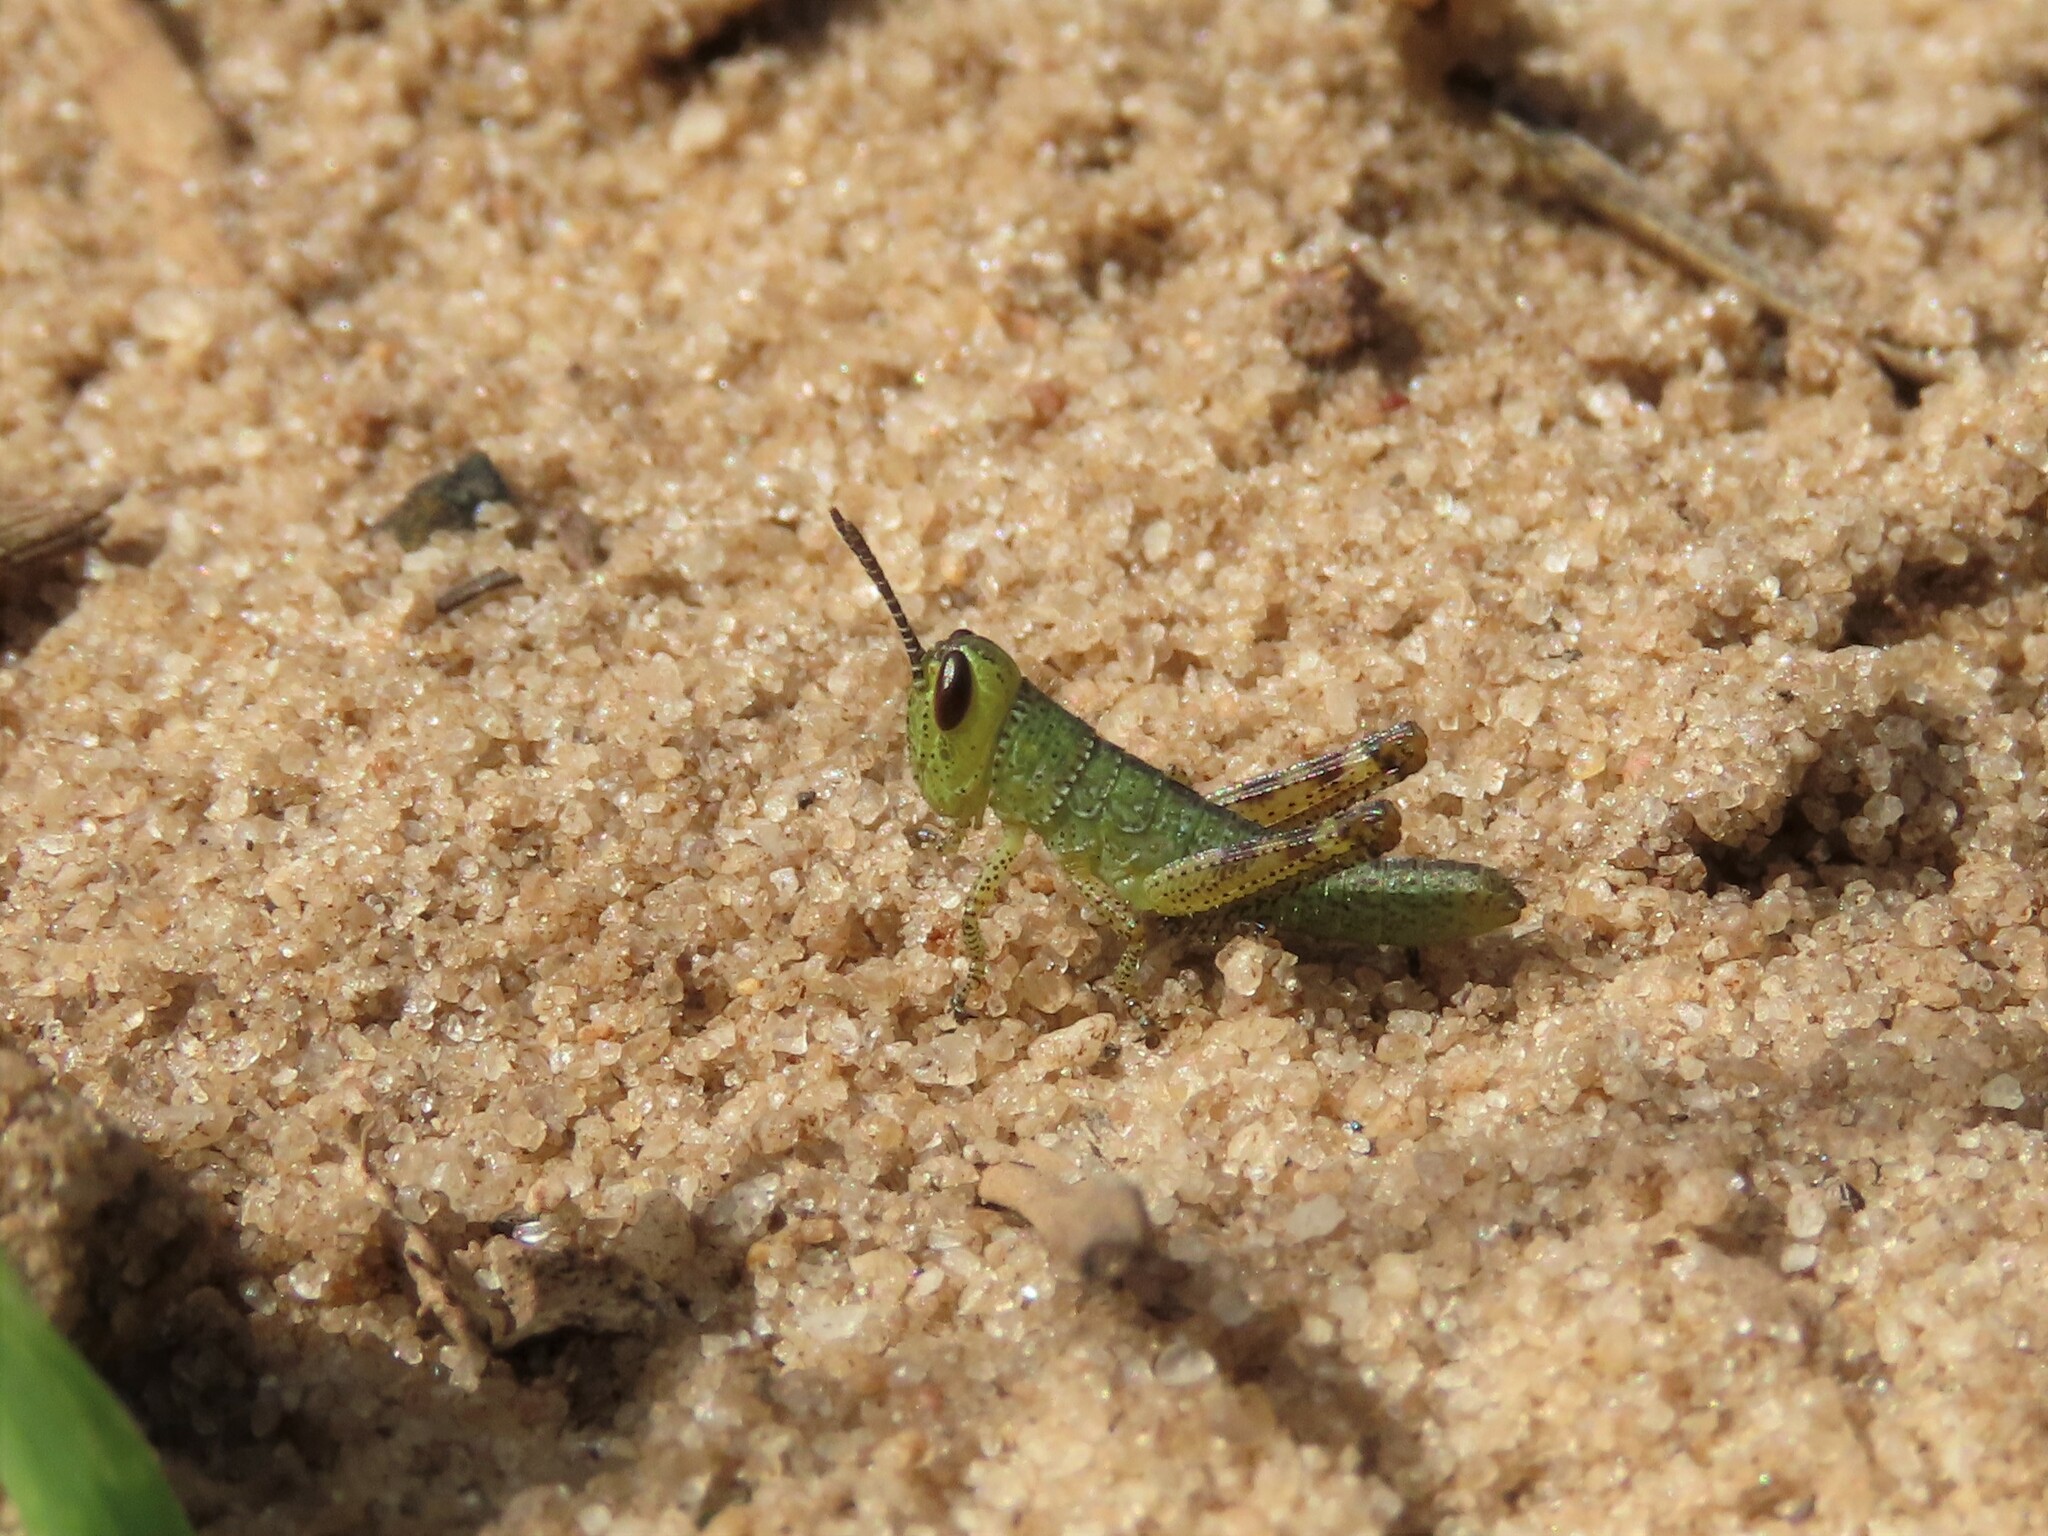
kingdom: Animalia
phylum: Arthropoda
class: Insecta
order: Orthoptera
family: Acrididae
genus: Schistocerca
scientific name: Schistocerca americana
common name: American bird locust
